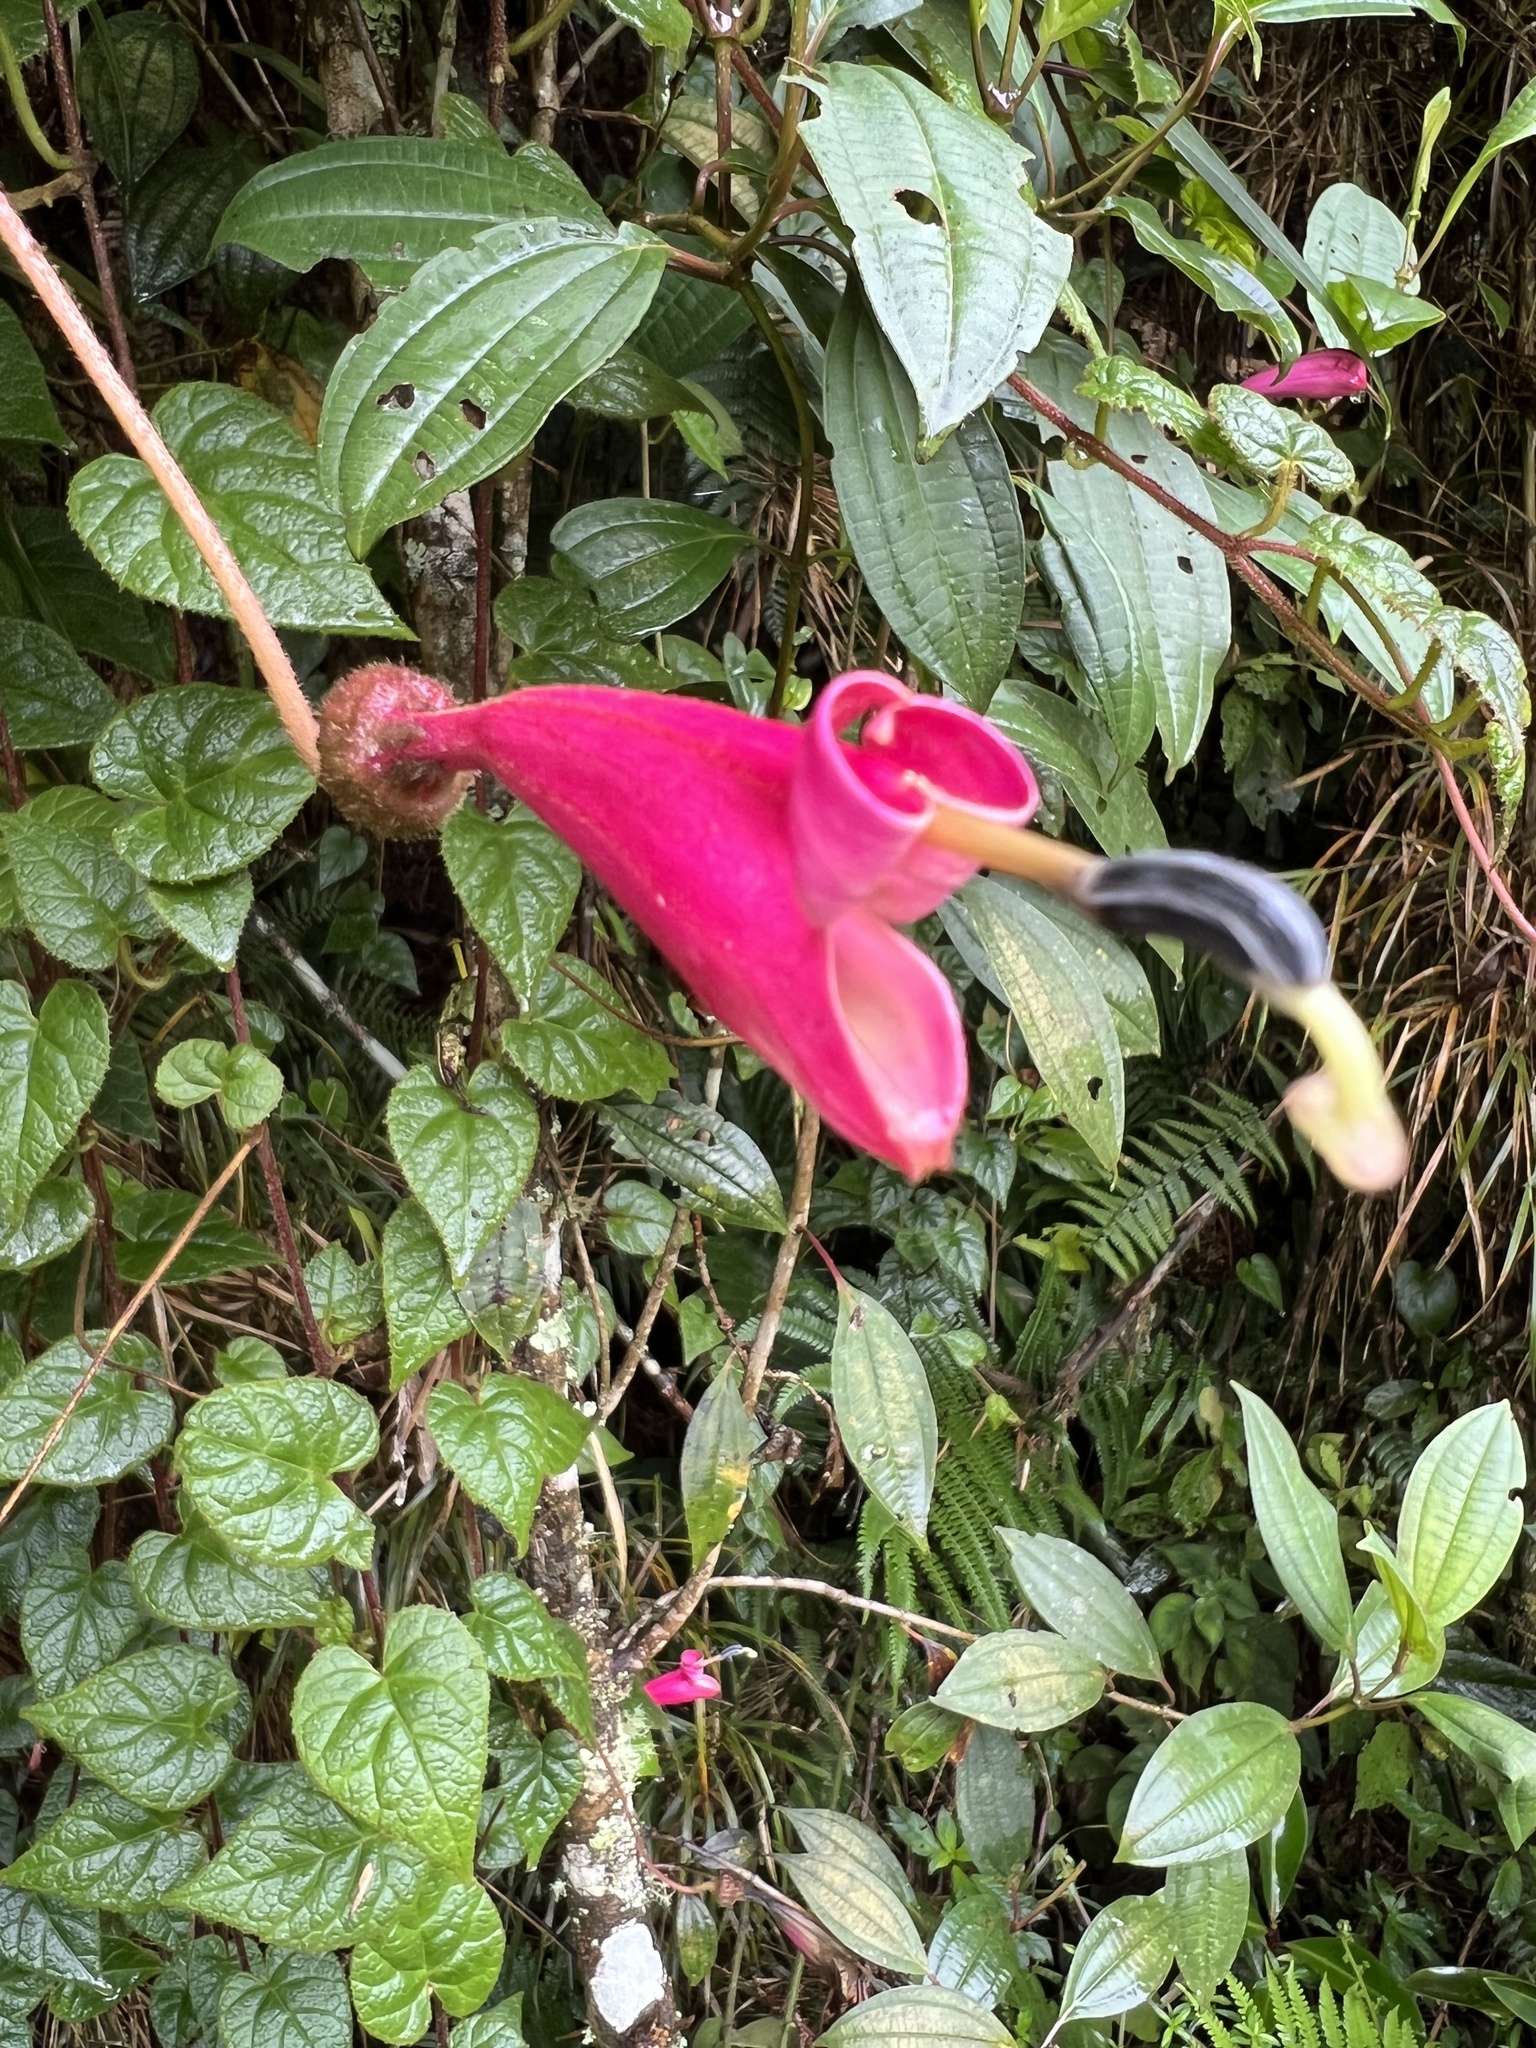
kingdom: Plantae
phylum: Tracheophyta
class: Magnoliopsida
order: Asterales
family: Campanulaceae
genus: Siphocampylus
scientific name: Siphocampylus benthamianus
